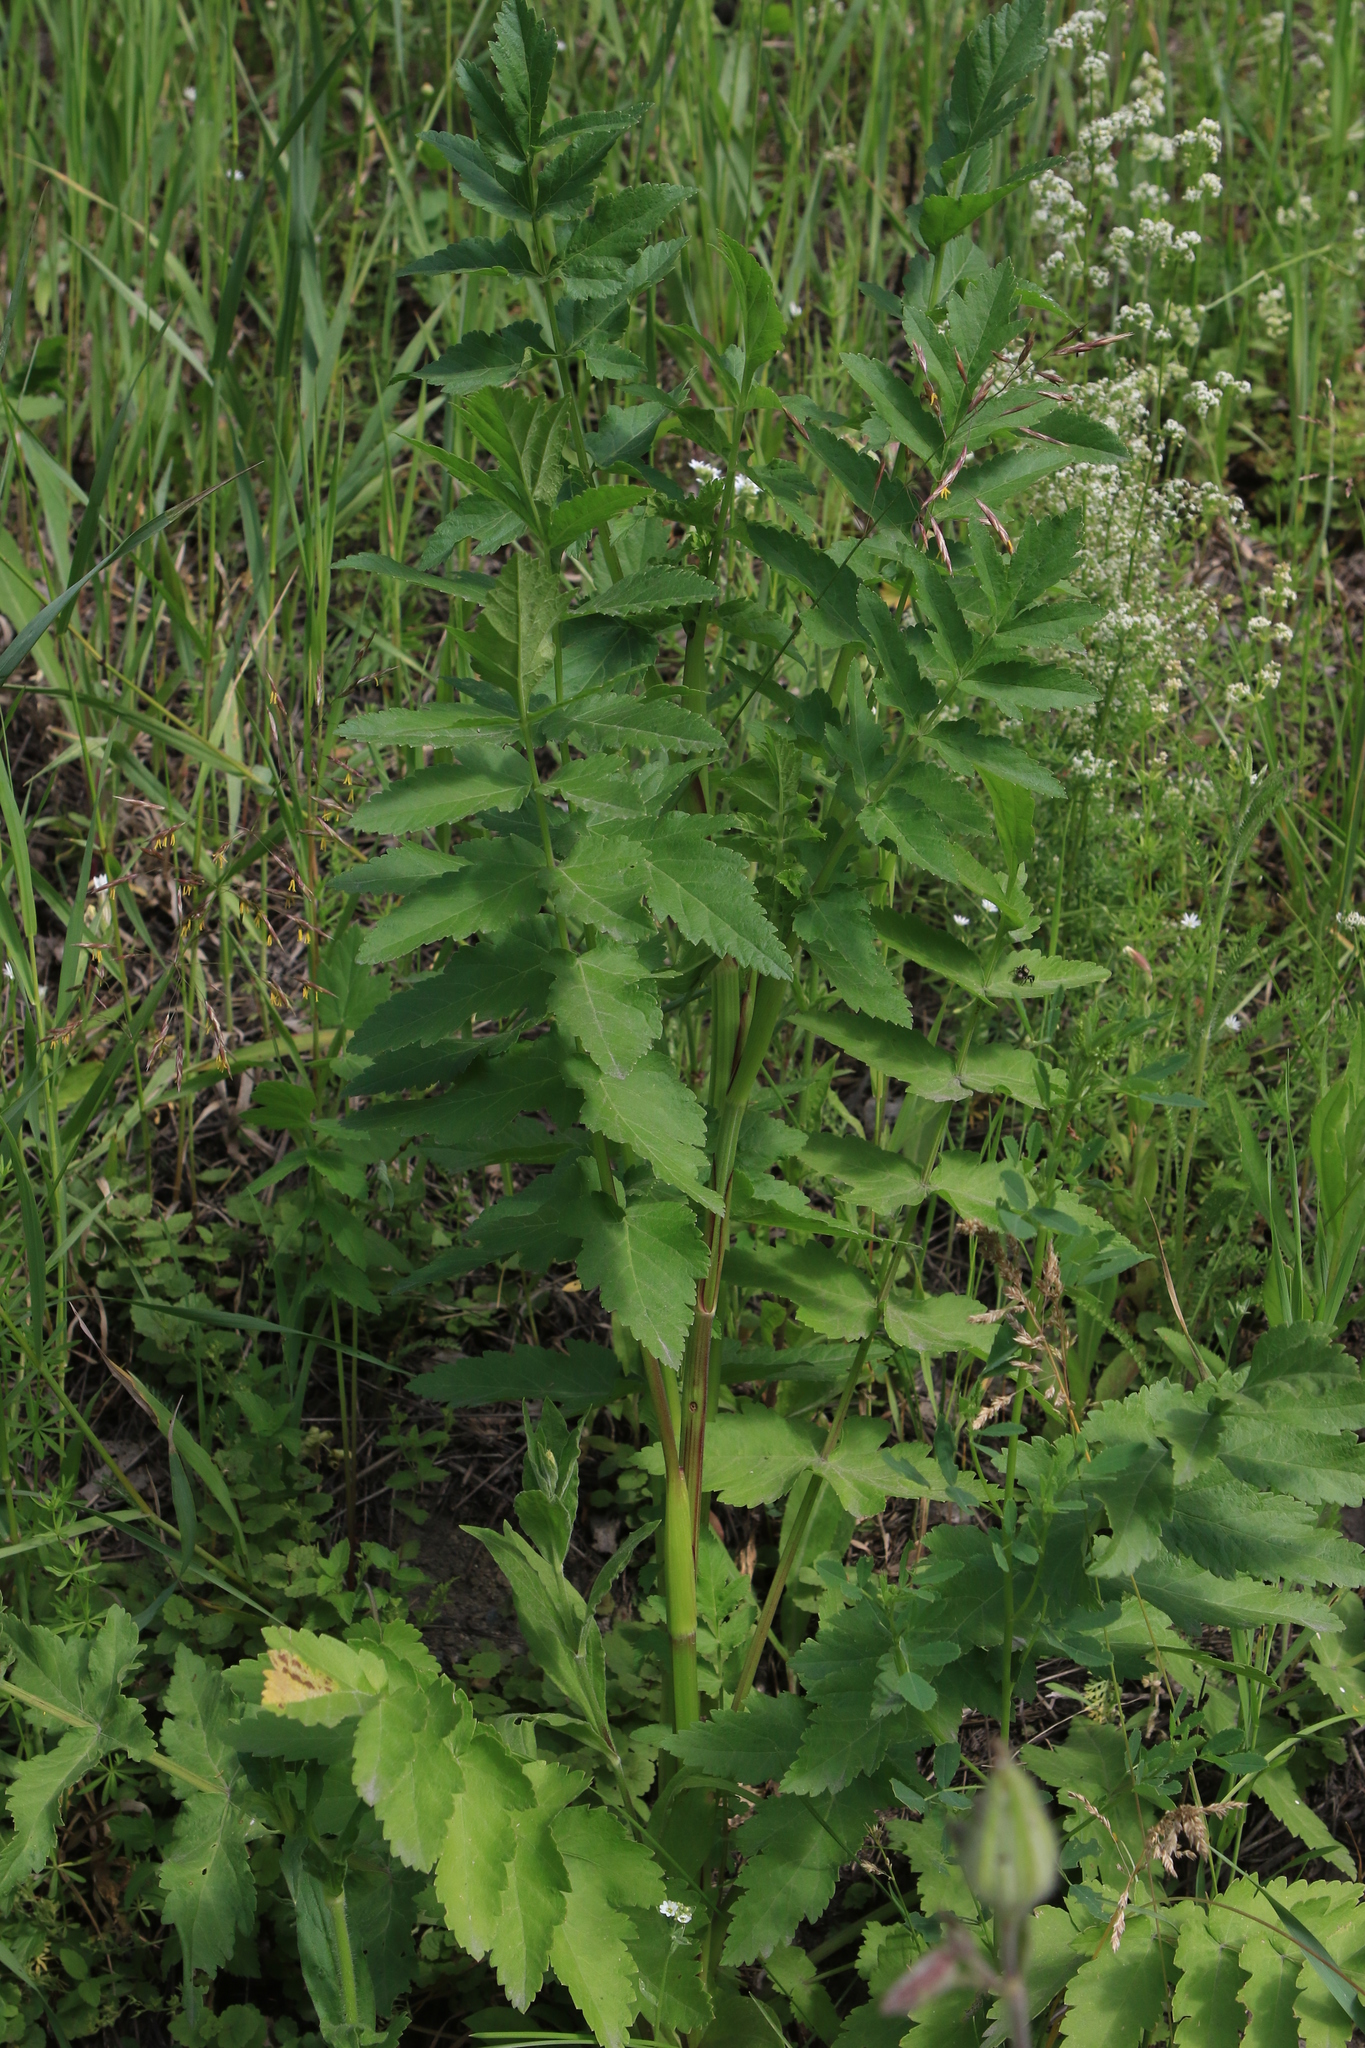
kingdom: Plantae
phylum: Tracheophyta
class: Magnoliopsida
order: Apiales
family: Apiaceae
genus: Pastinaca
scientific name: Pastinaca sativa
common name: Wild parsnip
